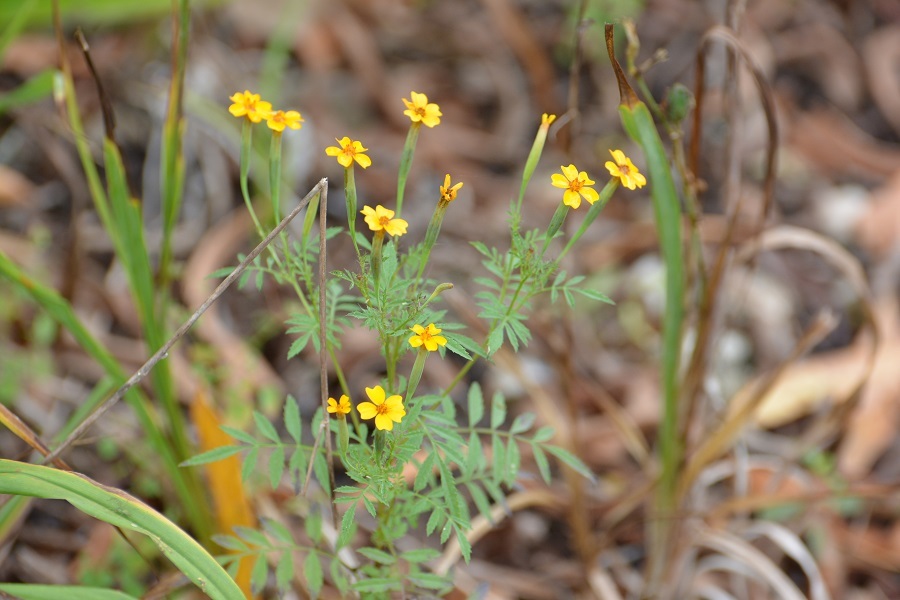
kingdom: Plantae
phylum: Tracheophyta
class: Magnoliopsida
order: Asterales
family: Asteraceae
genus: Tagetes
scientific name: Tagetes tenuifolia
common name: Signet marigold
